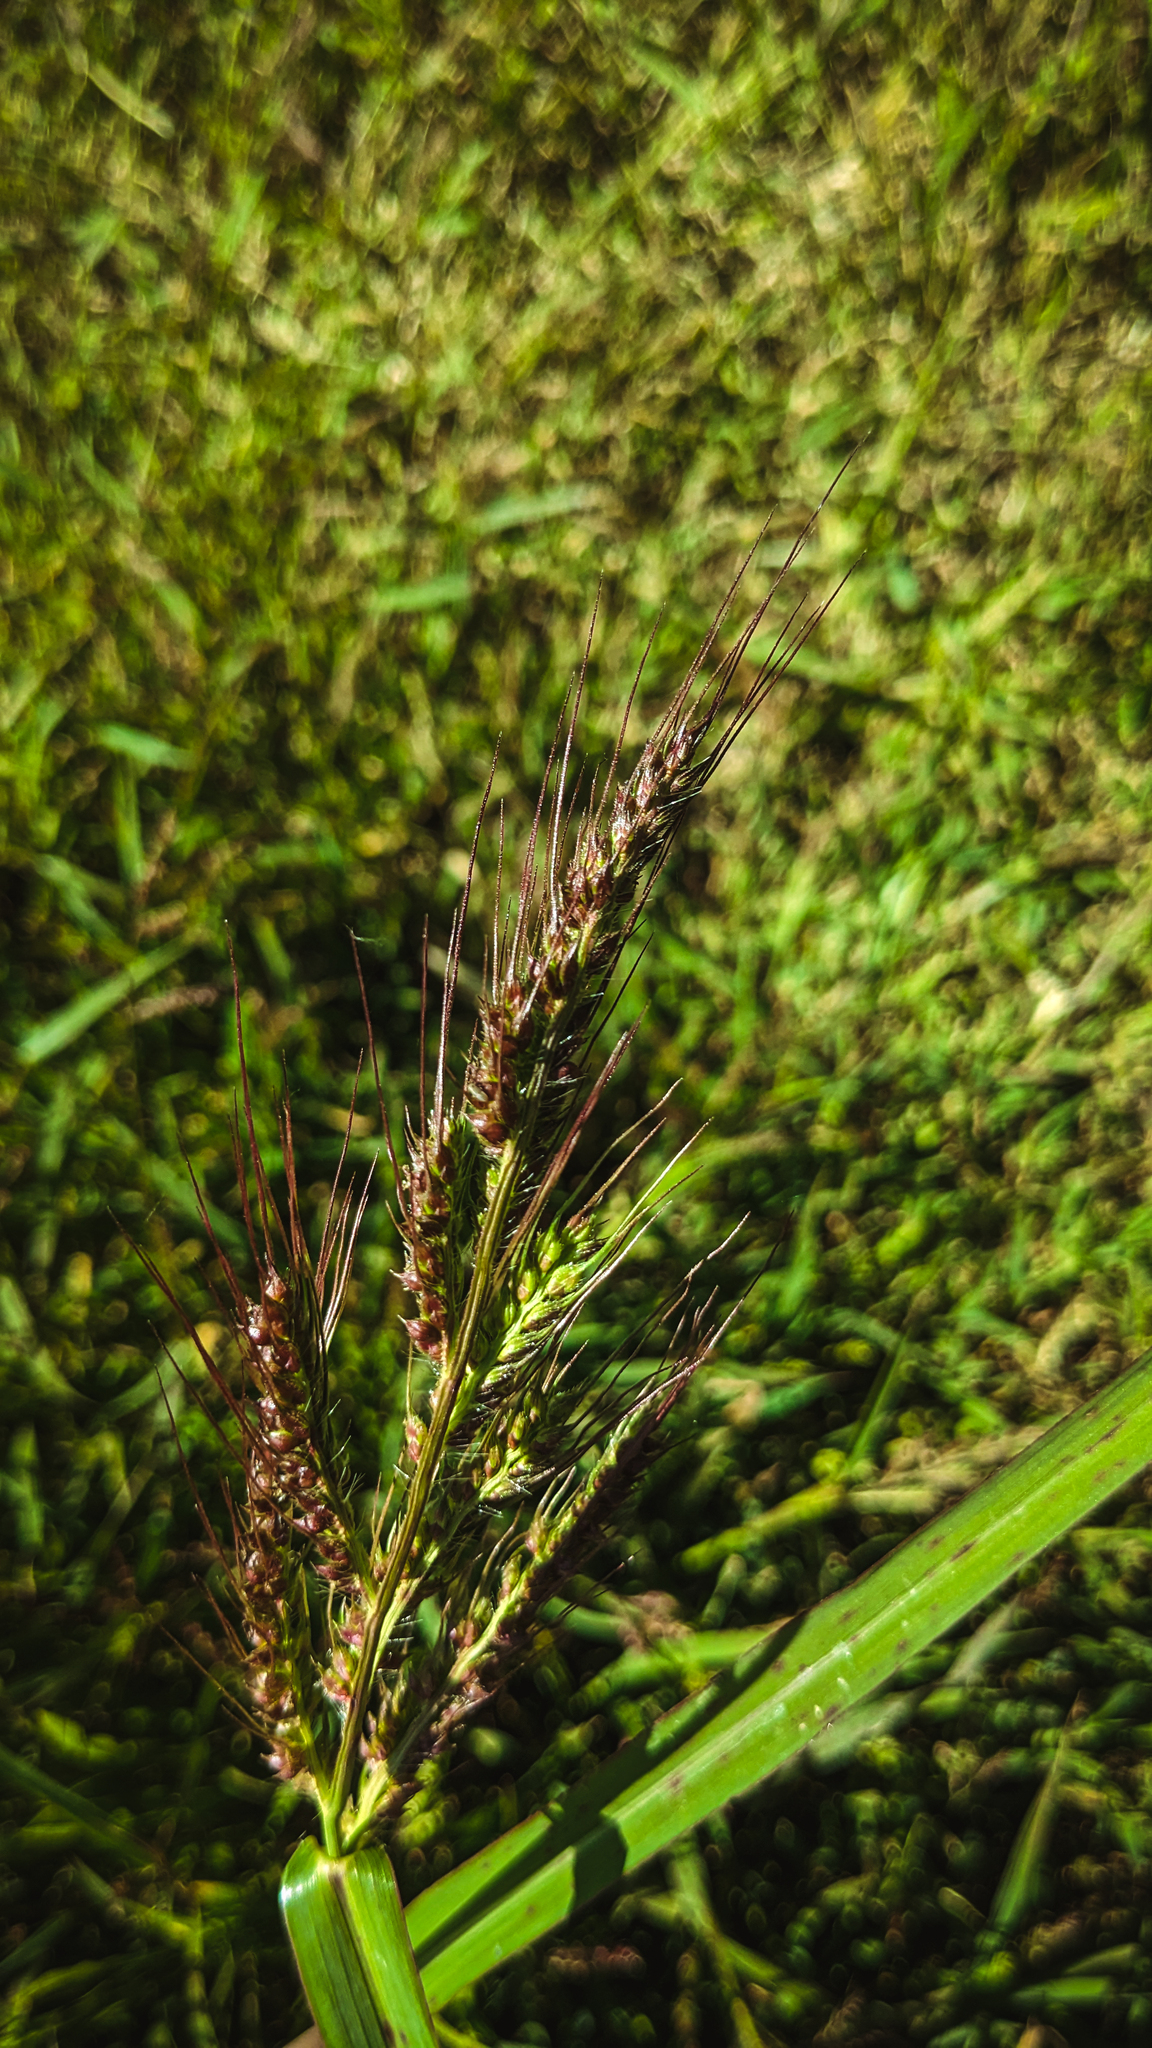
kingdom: Plantae
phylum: Tracheophyta
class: Liliopsida
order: Poales
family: Poaceae
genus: Echinochloa
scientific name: Echinochloa crus-galli
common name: Cockspur
